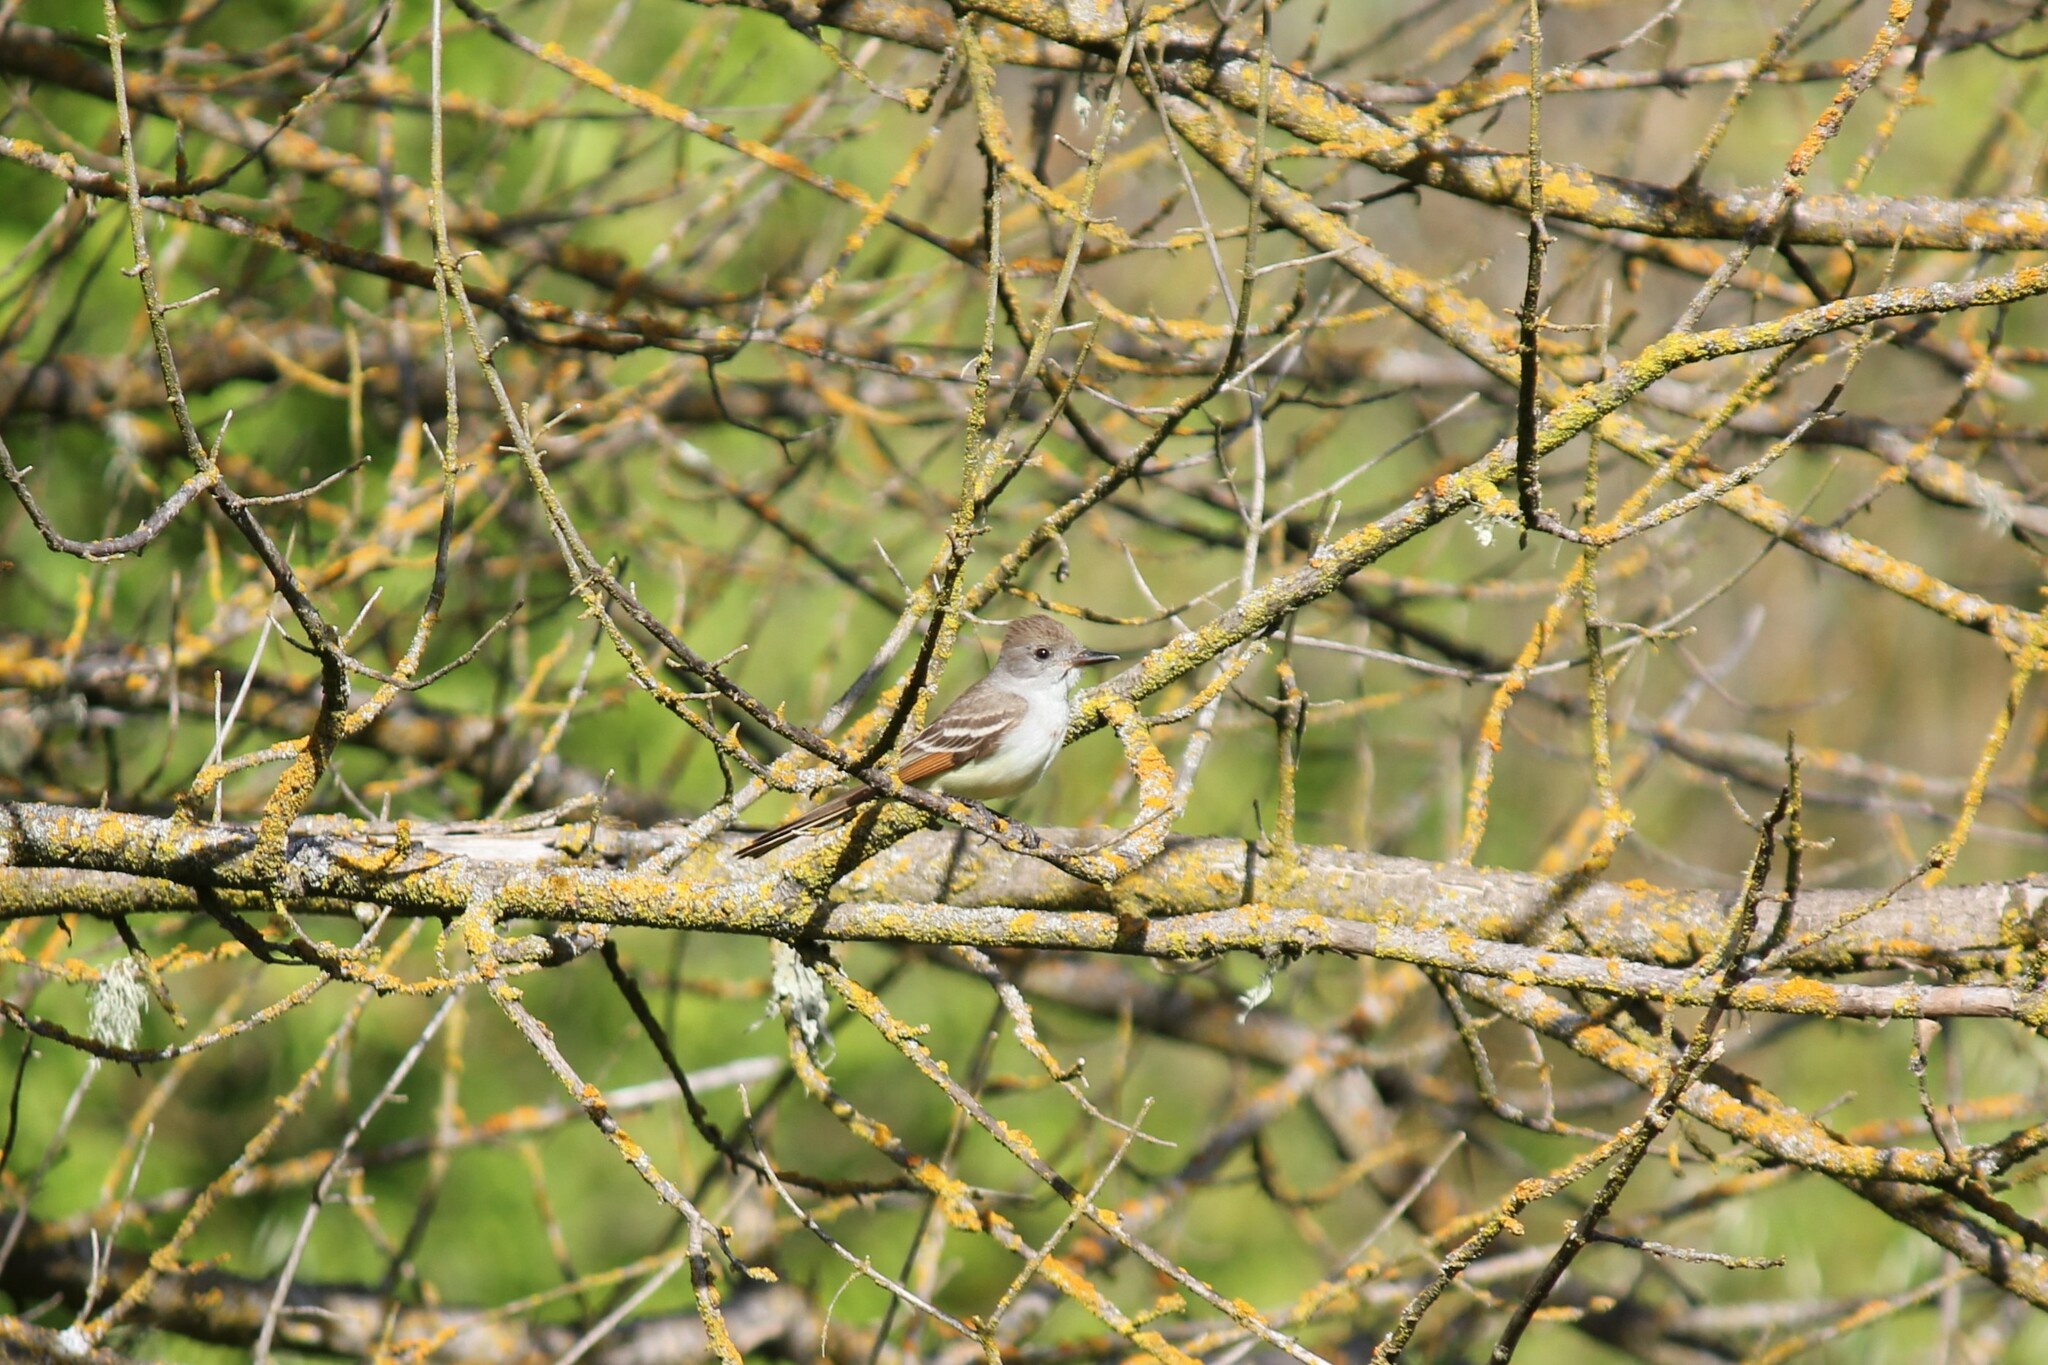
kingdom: Animalia
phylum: Chordata
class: Aves
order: Passeriformes
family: Tyrannidae
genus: Myiarchus
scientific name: Myiarchus cinerascens
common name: Ash-throated flycatcher
